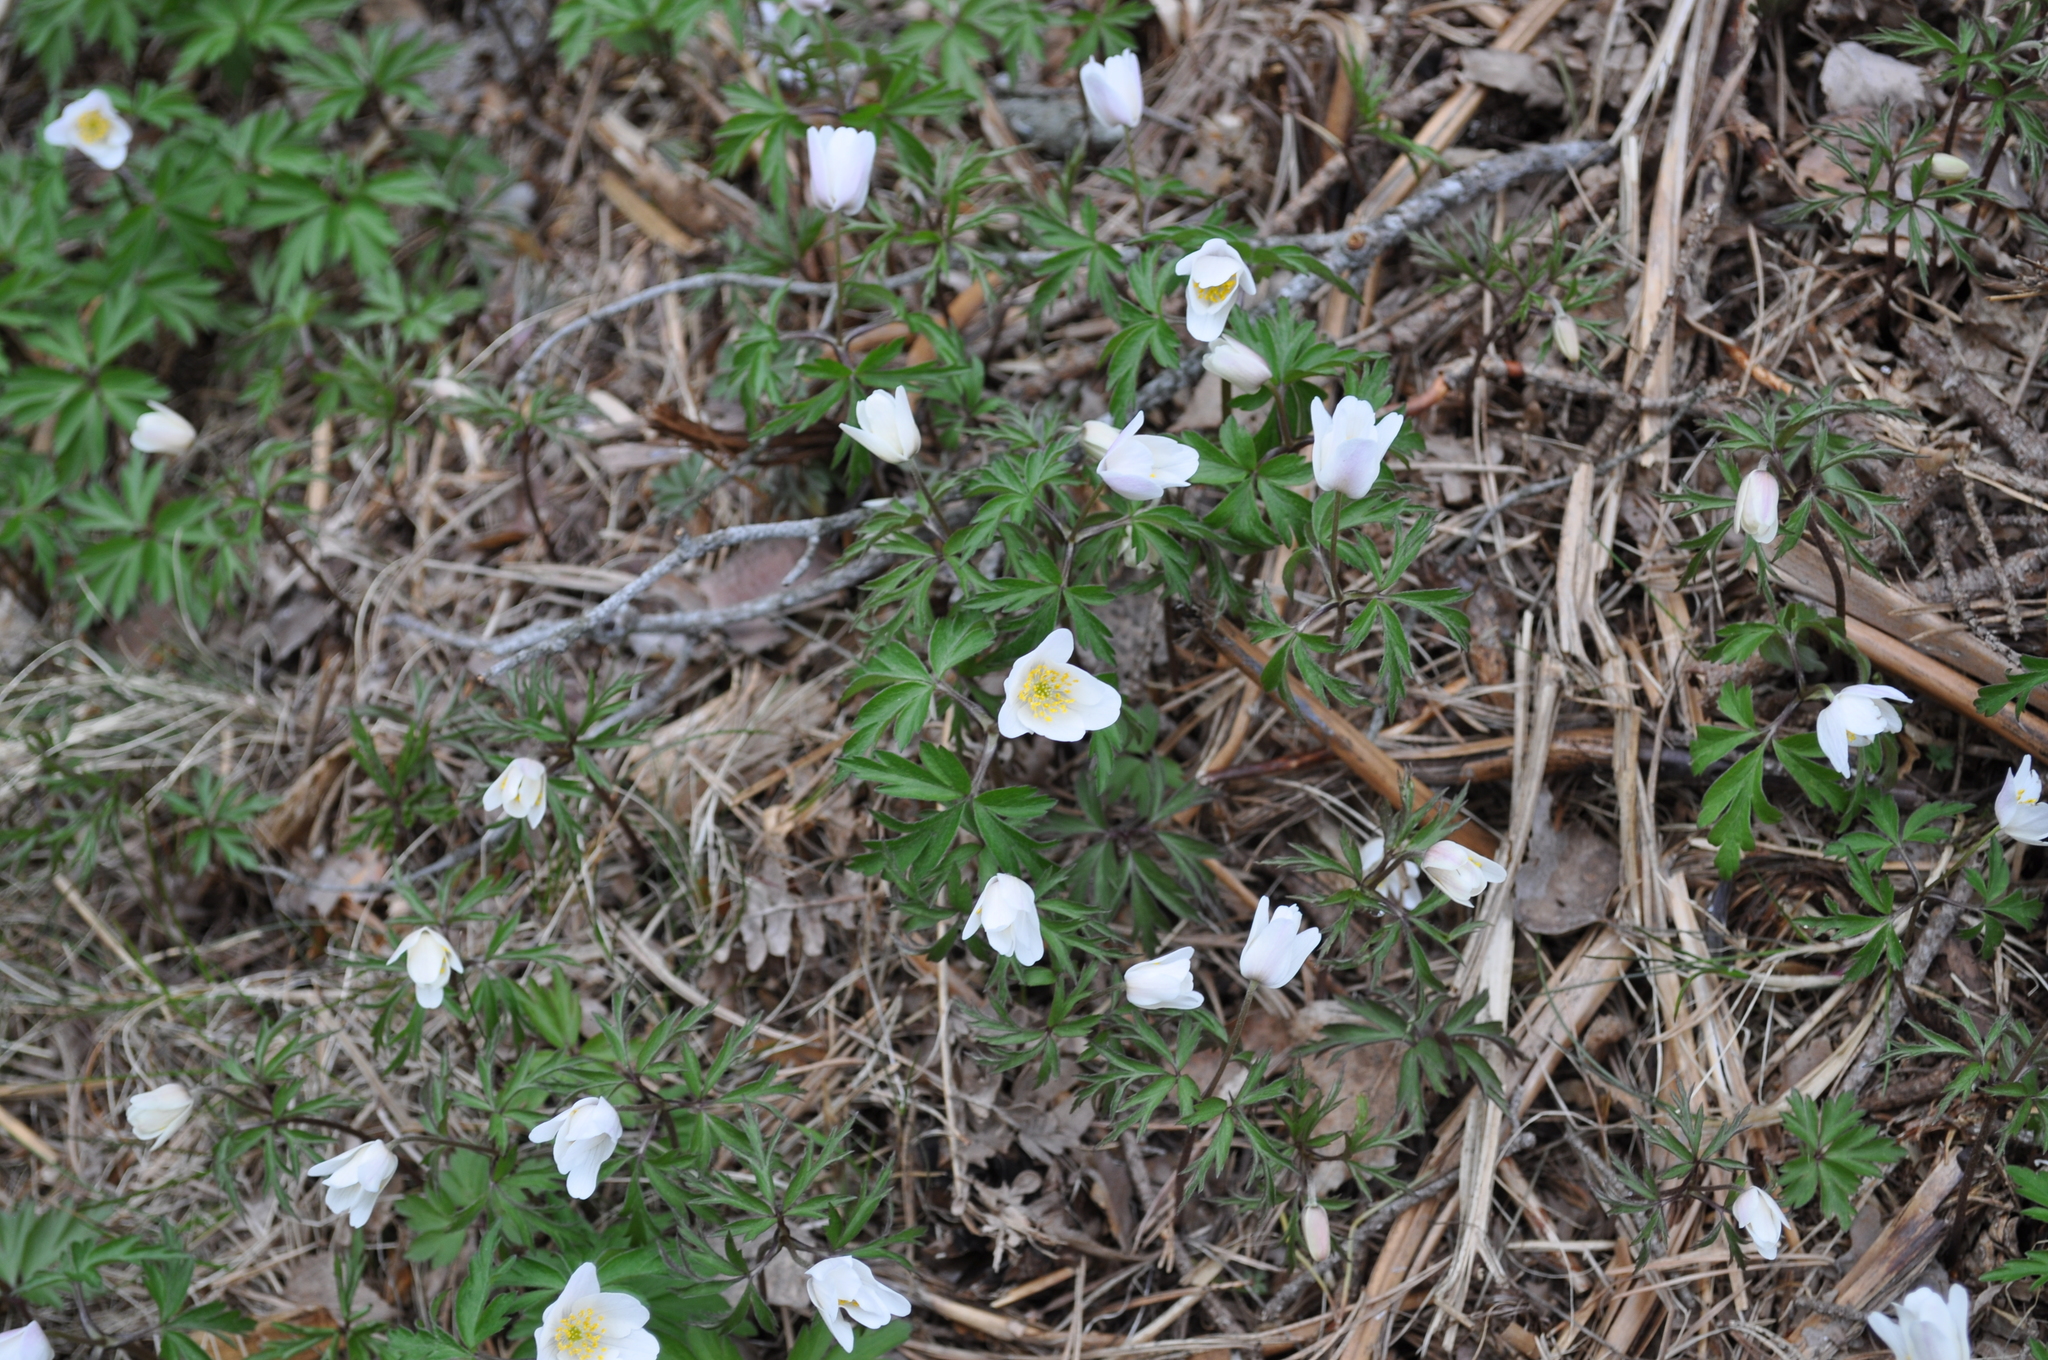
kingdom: Plantae
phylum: Tracheophyta
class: Magnoliopsida
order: Ranunculales
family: Ranunculaceae
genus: Anemone
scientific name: Anemone nemorosa
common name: Wood anemone
